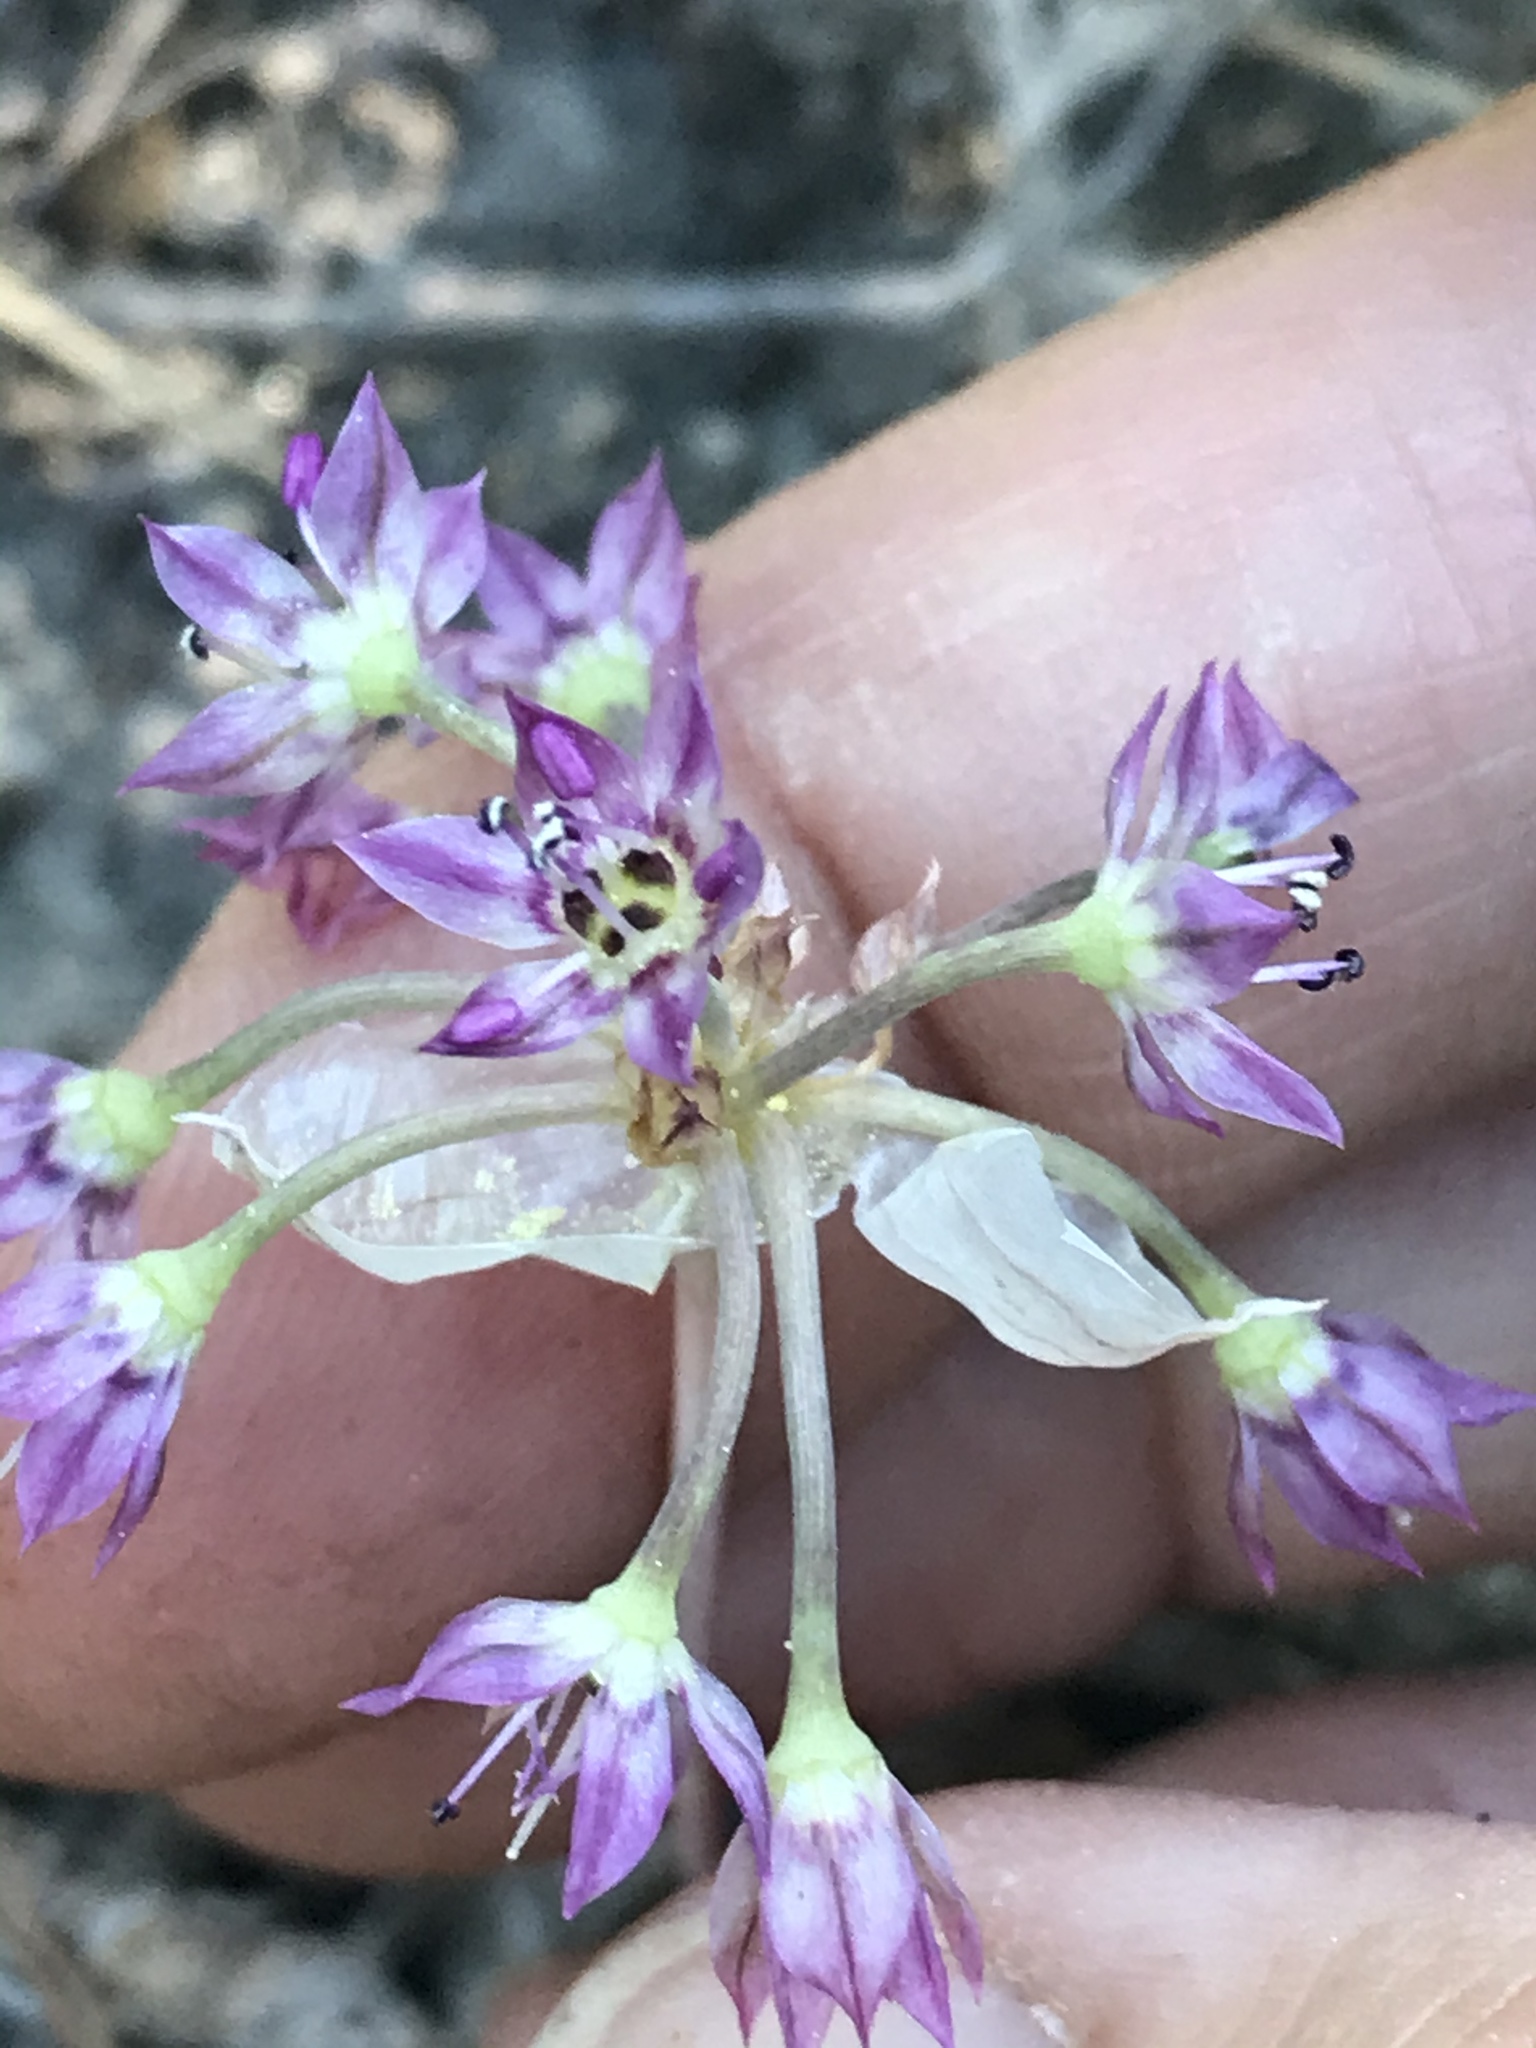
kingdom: Plantae
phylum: Tracheophyta
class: Liliopsida
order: Asparagales
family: Amaryllidaceae
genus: Allium
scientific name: Allium campanulatum
